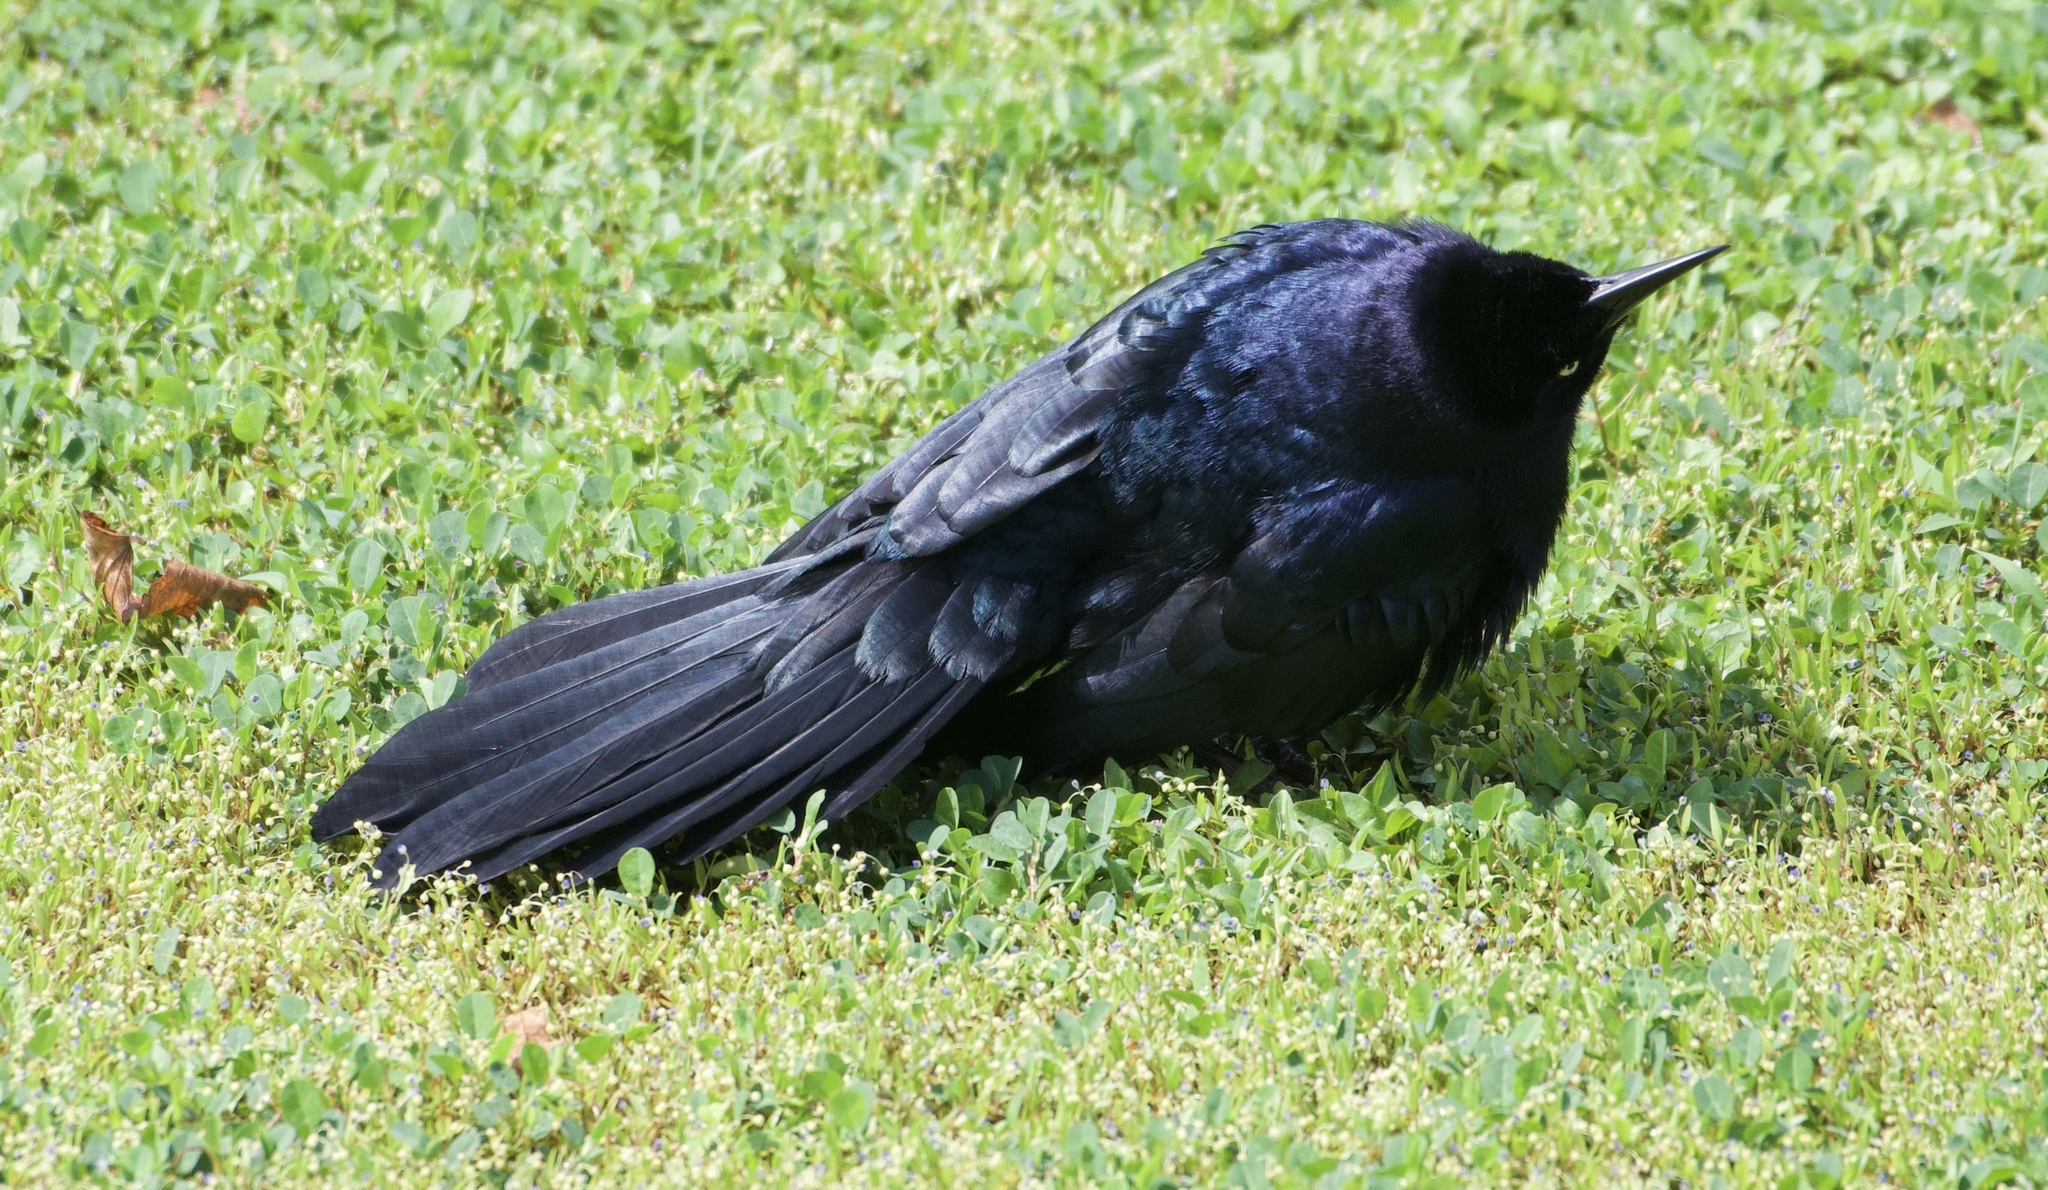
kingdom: Animalia
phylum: Chordata
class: Aves
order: Passeriformes
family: Icteridae
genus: Quiscalus
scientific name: Quiscalus mexicanus
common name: Great-tailed grackle
